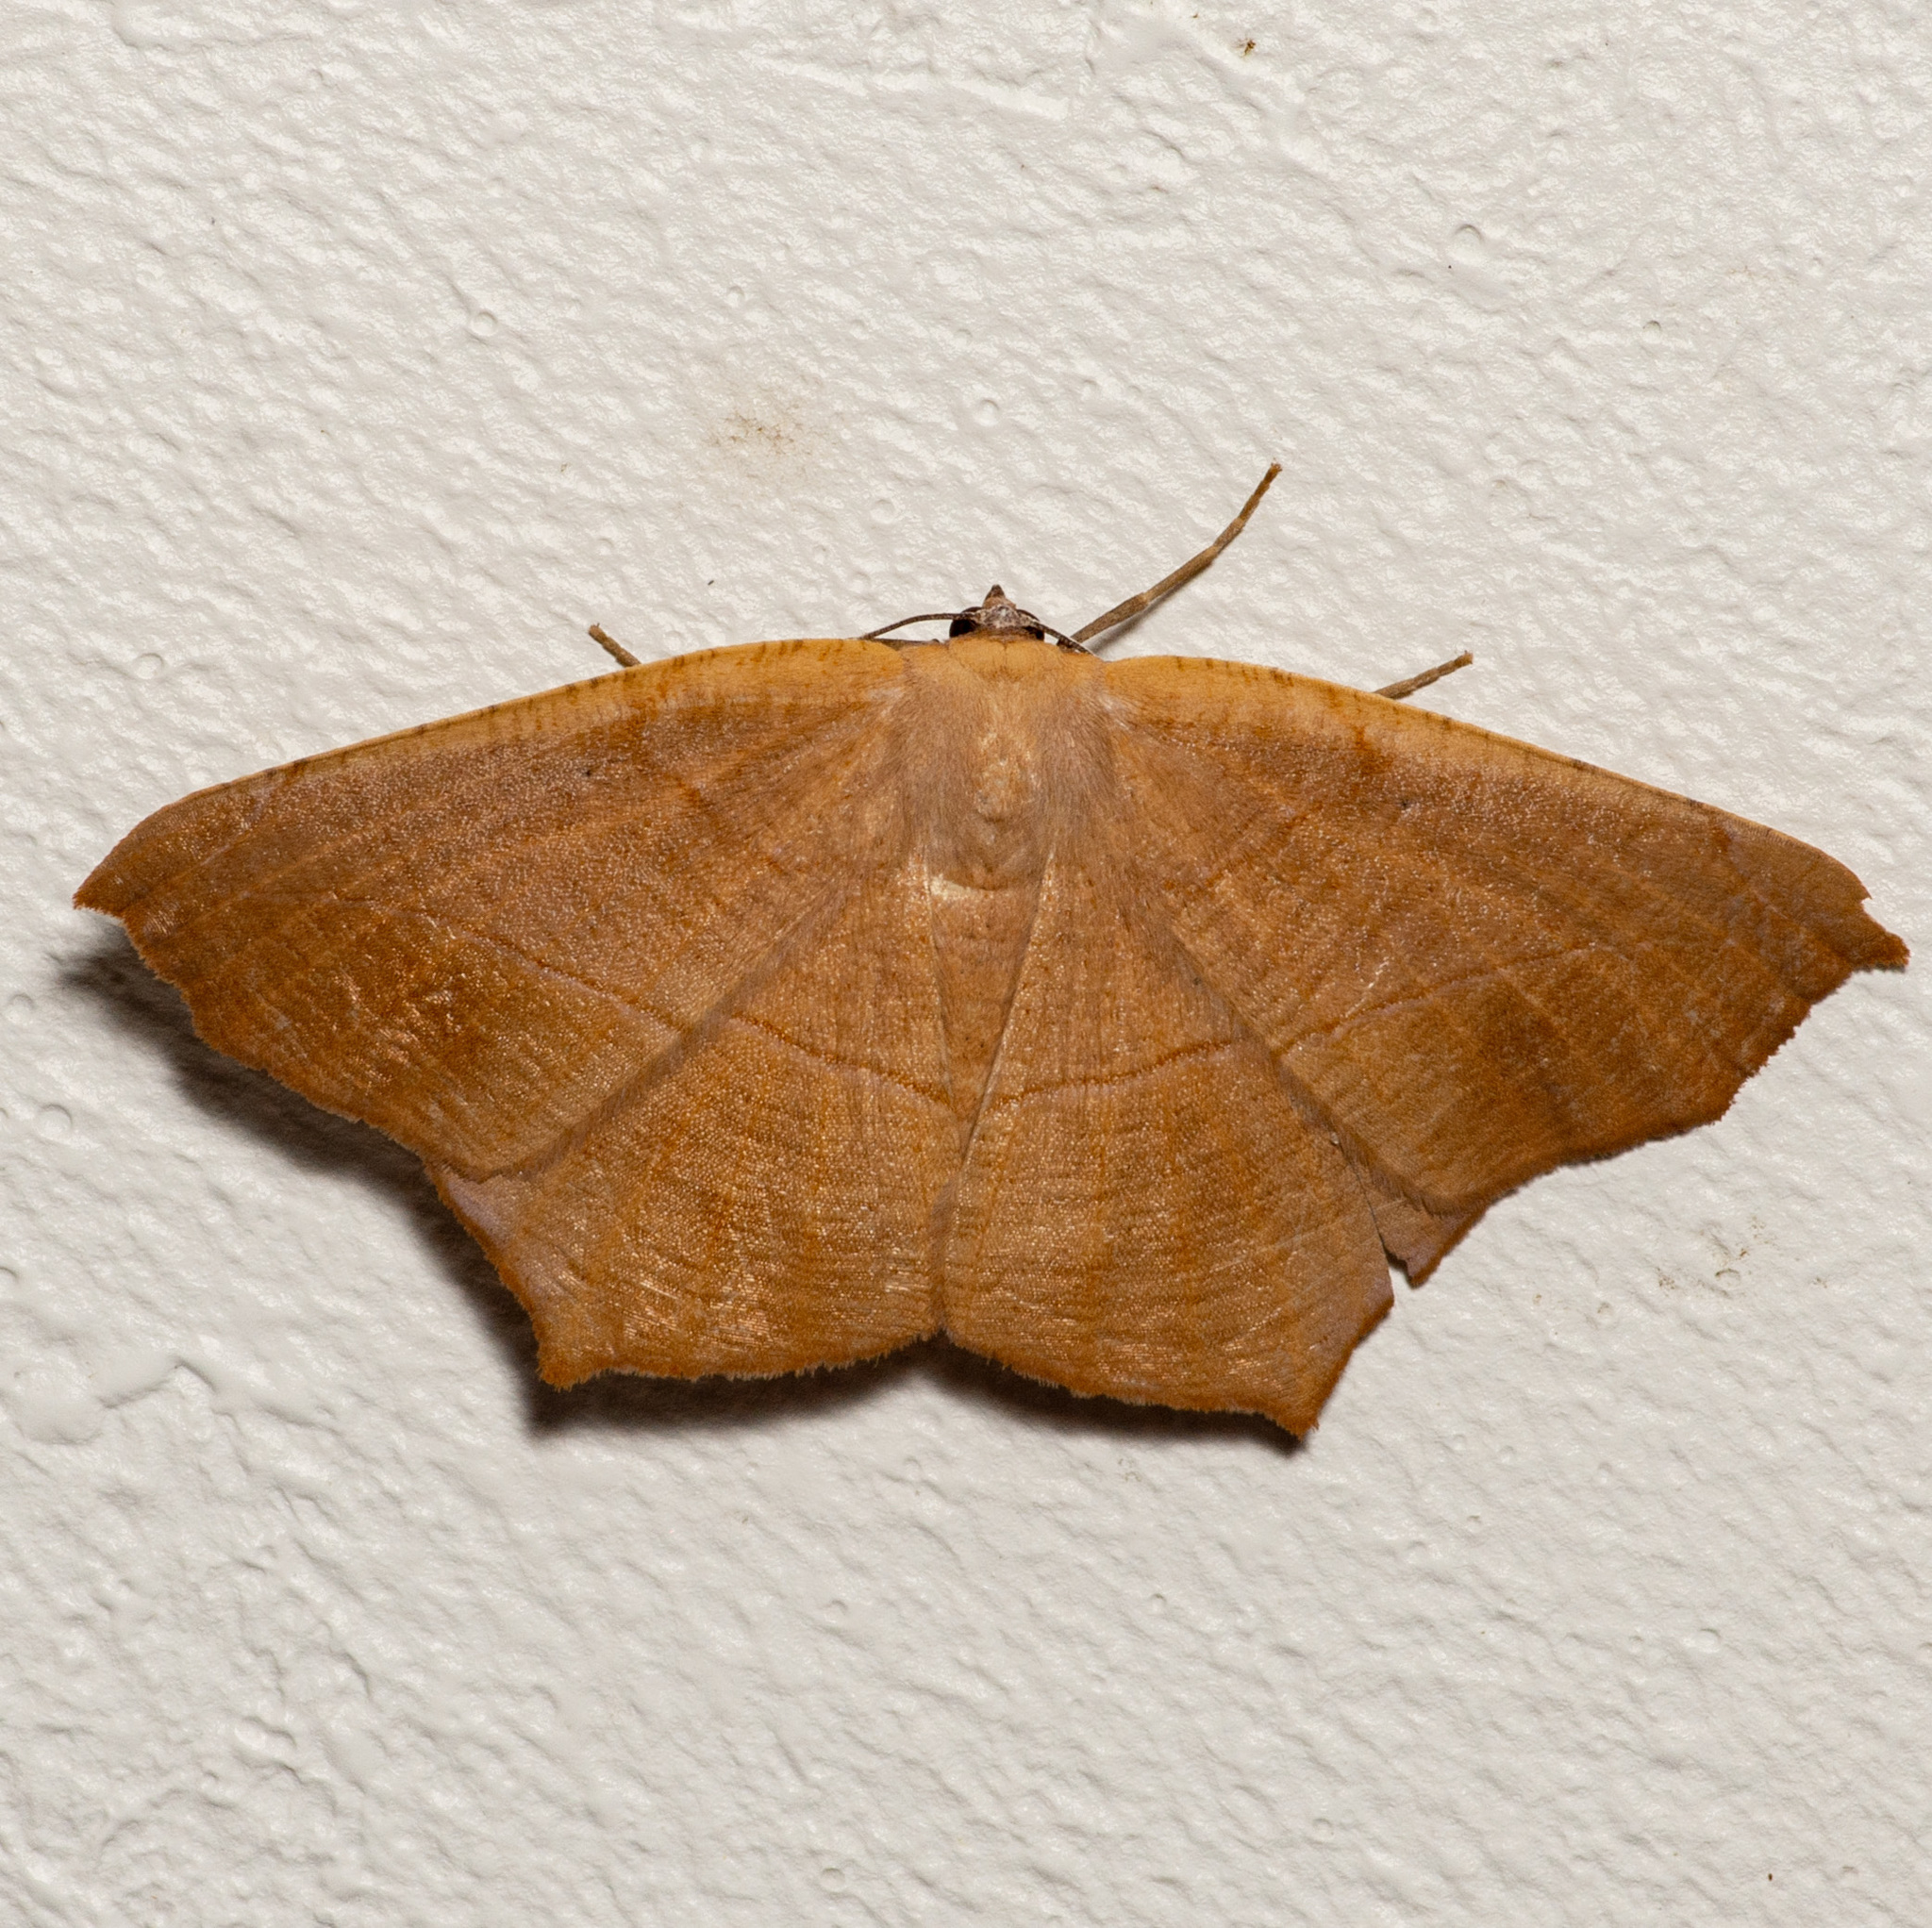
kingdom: Animalia
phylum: Arthropoda
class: Insecta
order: Lepidoptera
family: Geometridae
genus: Prochoerodes
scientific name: Prochoerodes lineola
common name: Large maple spanworm
